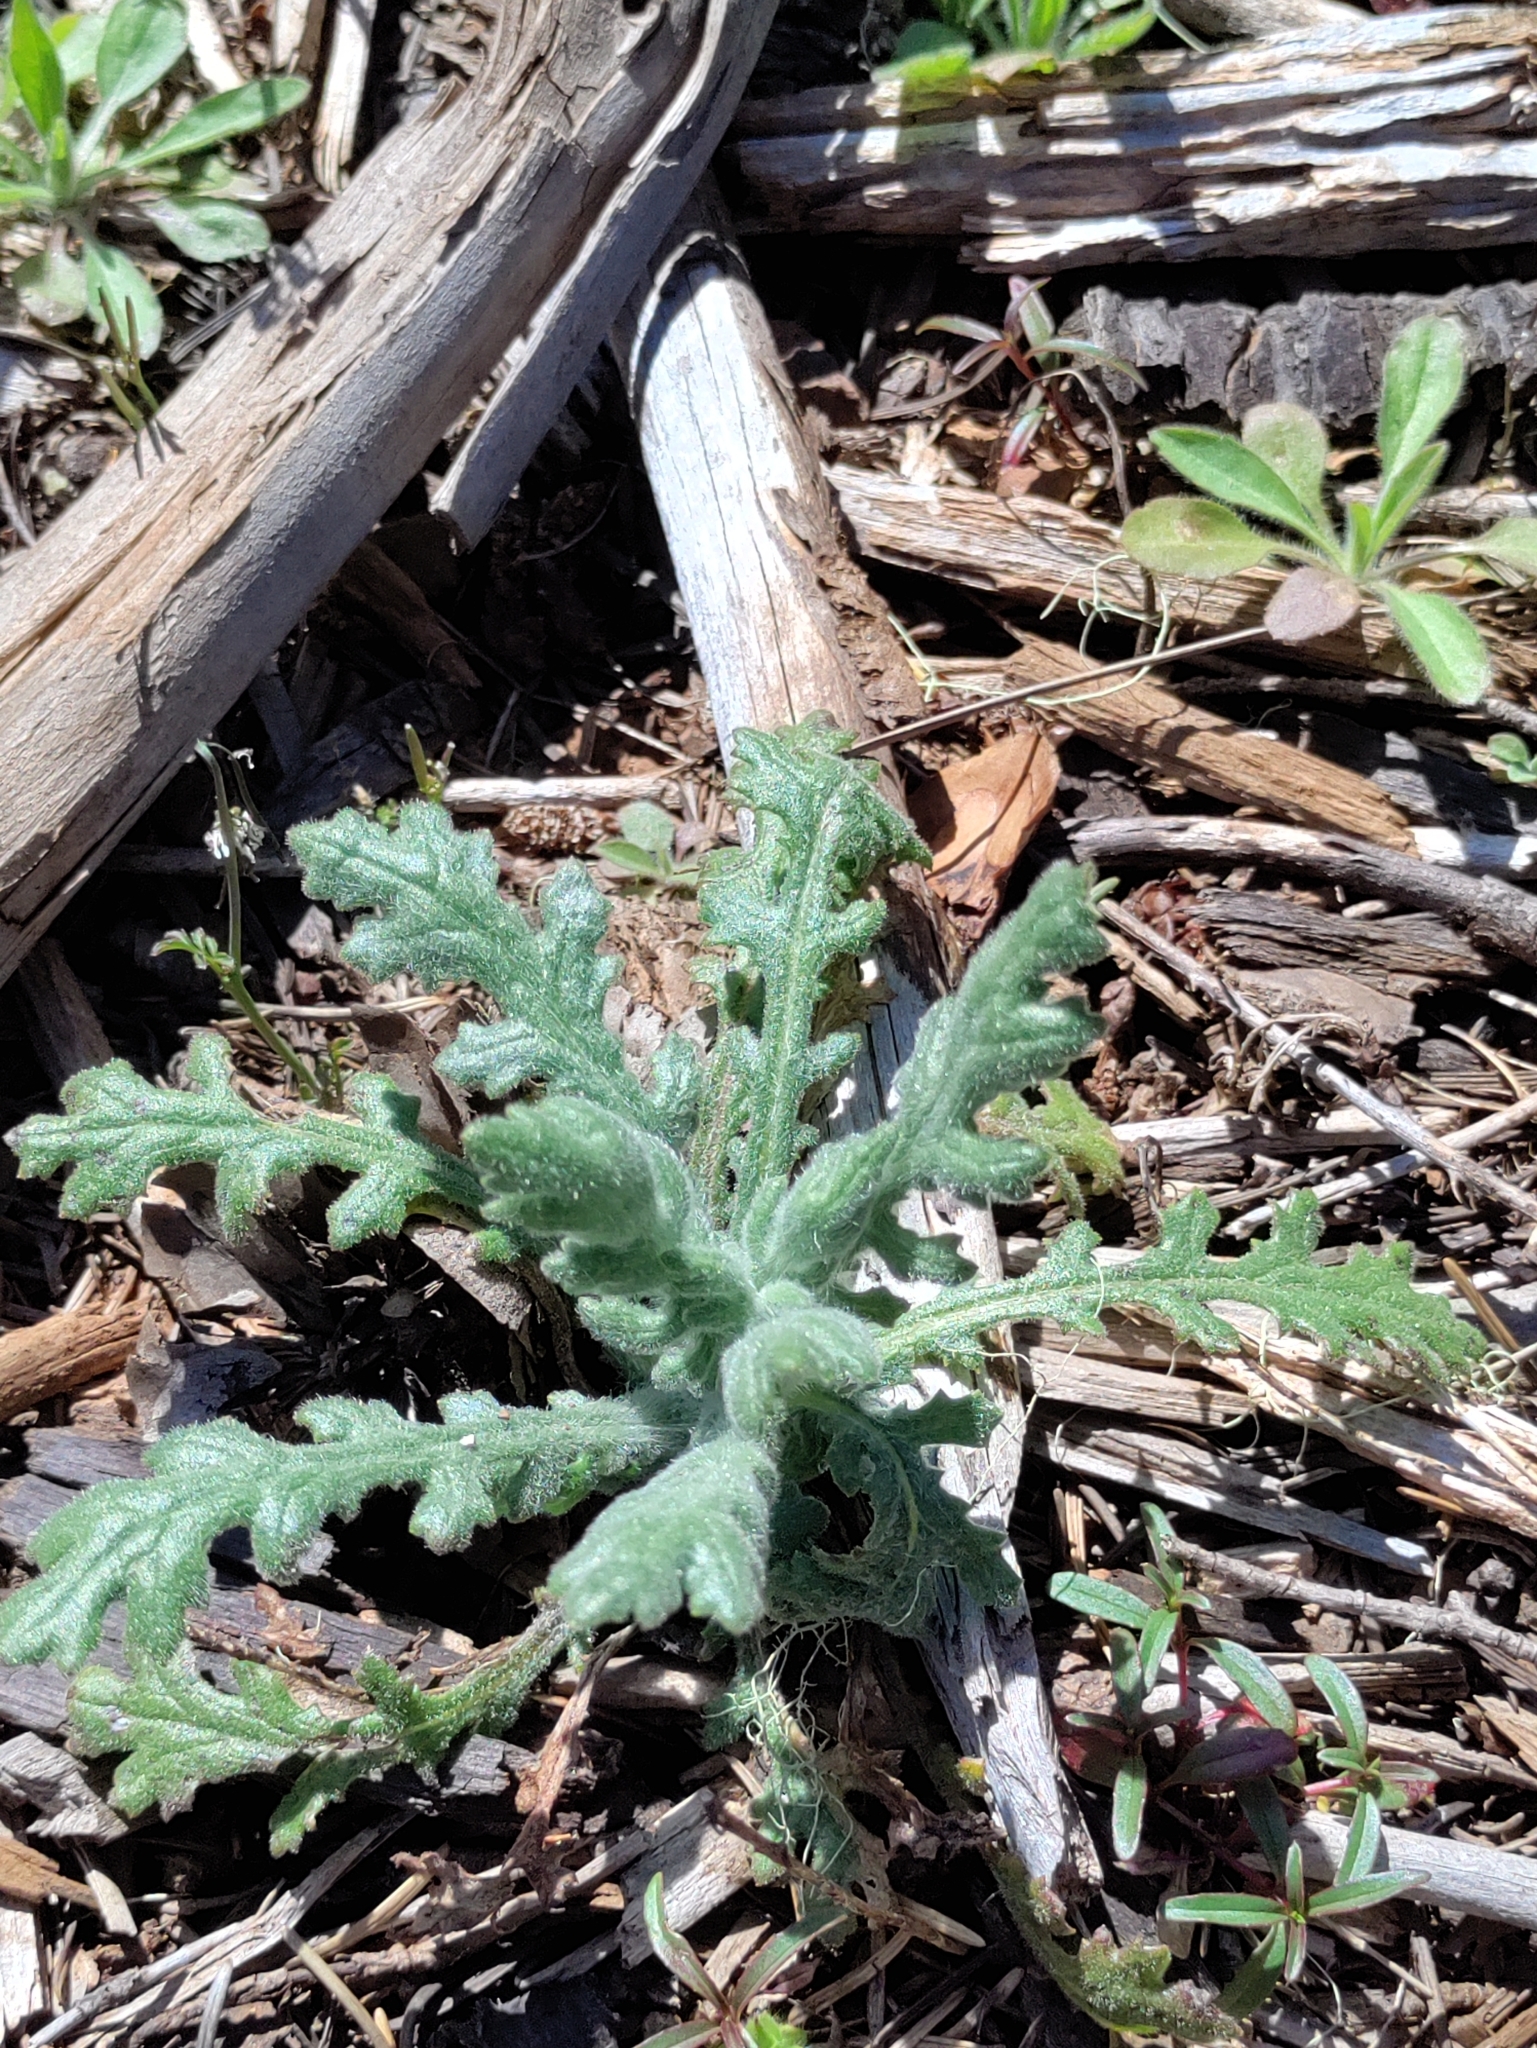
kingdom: Plantae
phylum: Tracheophyta
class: Magnoliopsida
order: Asterales
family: Asteraceae
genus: Senecio
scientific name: Senecio vulgaris
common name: Old-man-in-the-spring
